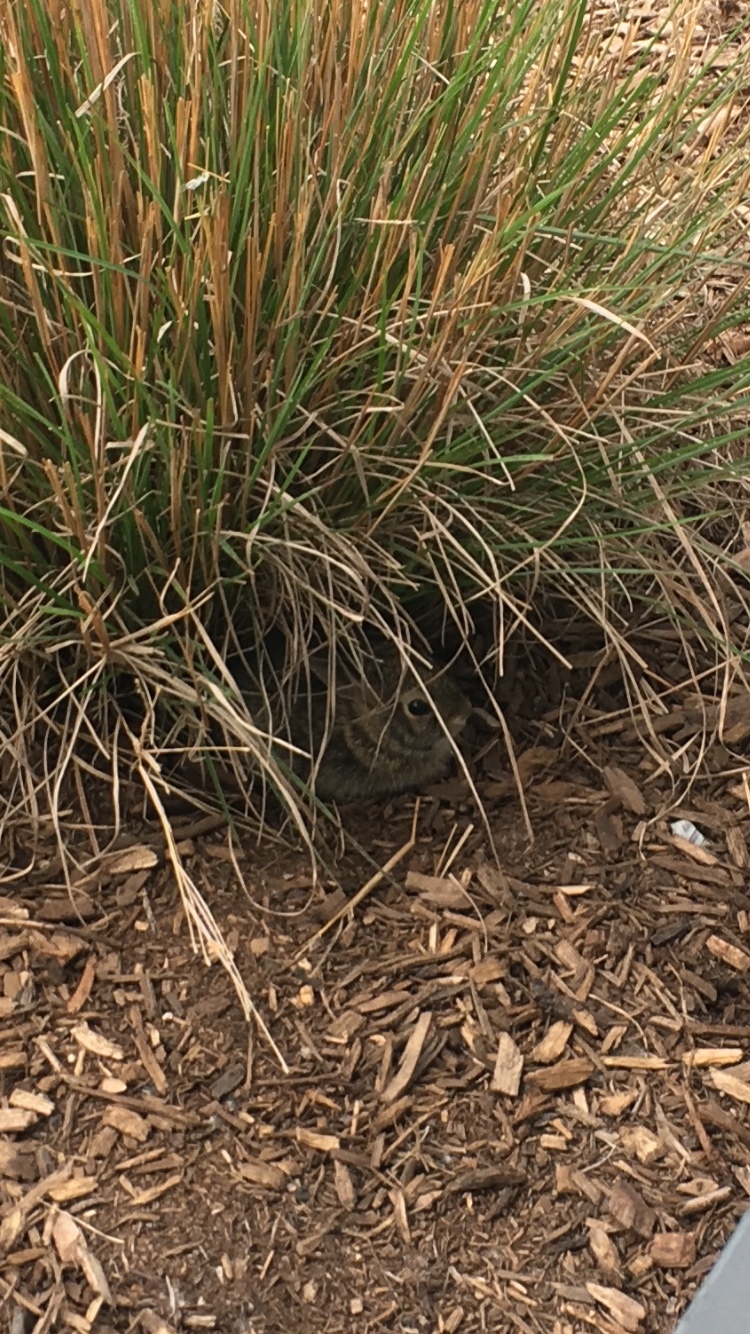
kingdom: Animalia
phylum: Chordata
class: Mammalia
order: Lagomorpha
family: Leporidae
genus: Sylvilagus
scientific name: Sylvilagus floridanus
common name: Eastern cottontail
